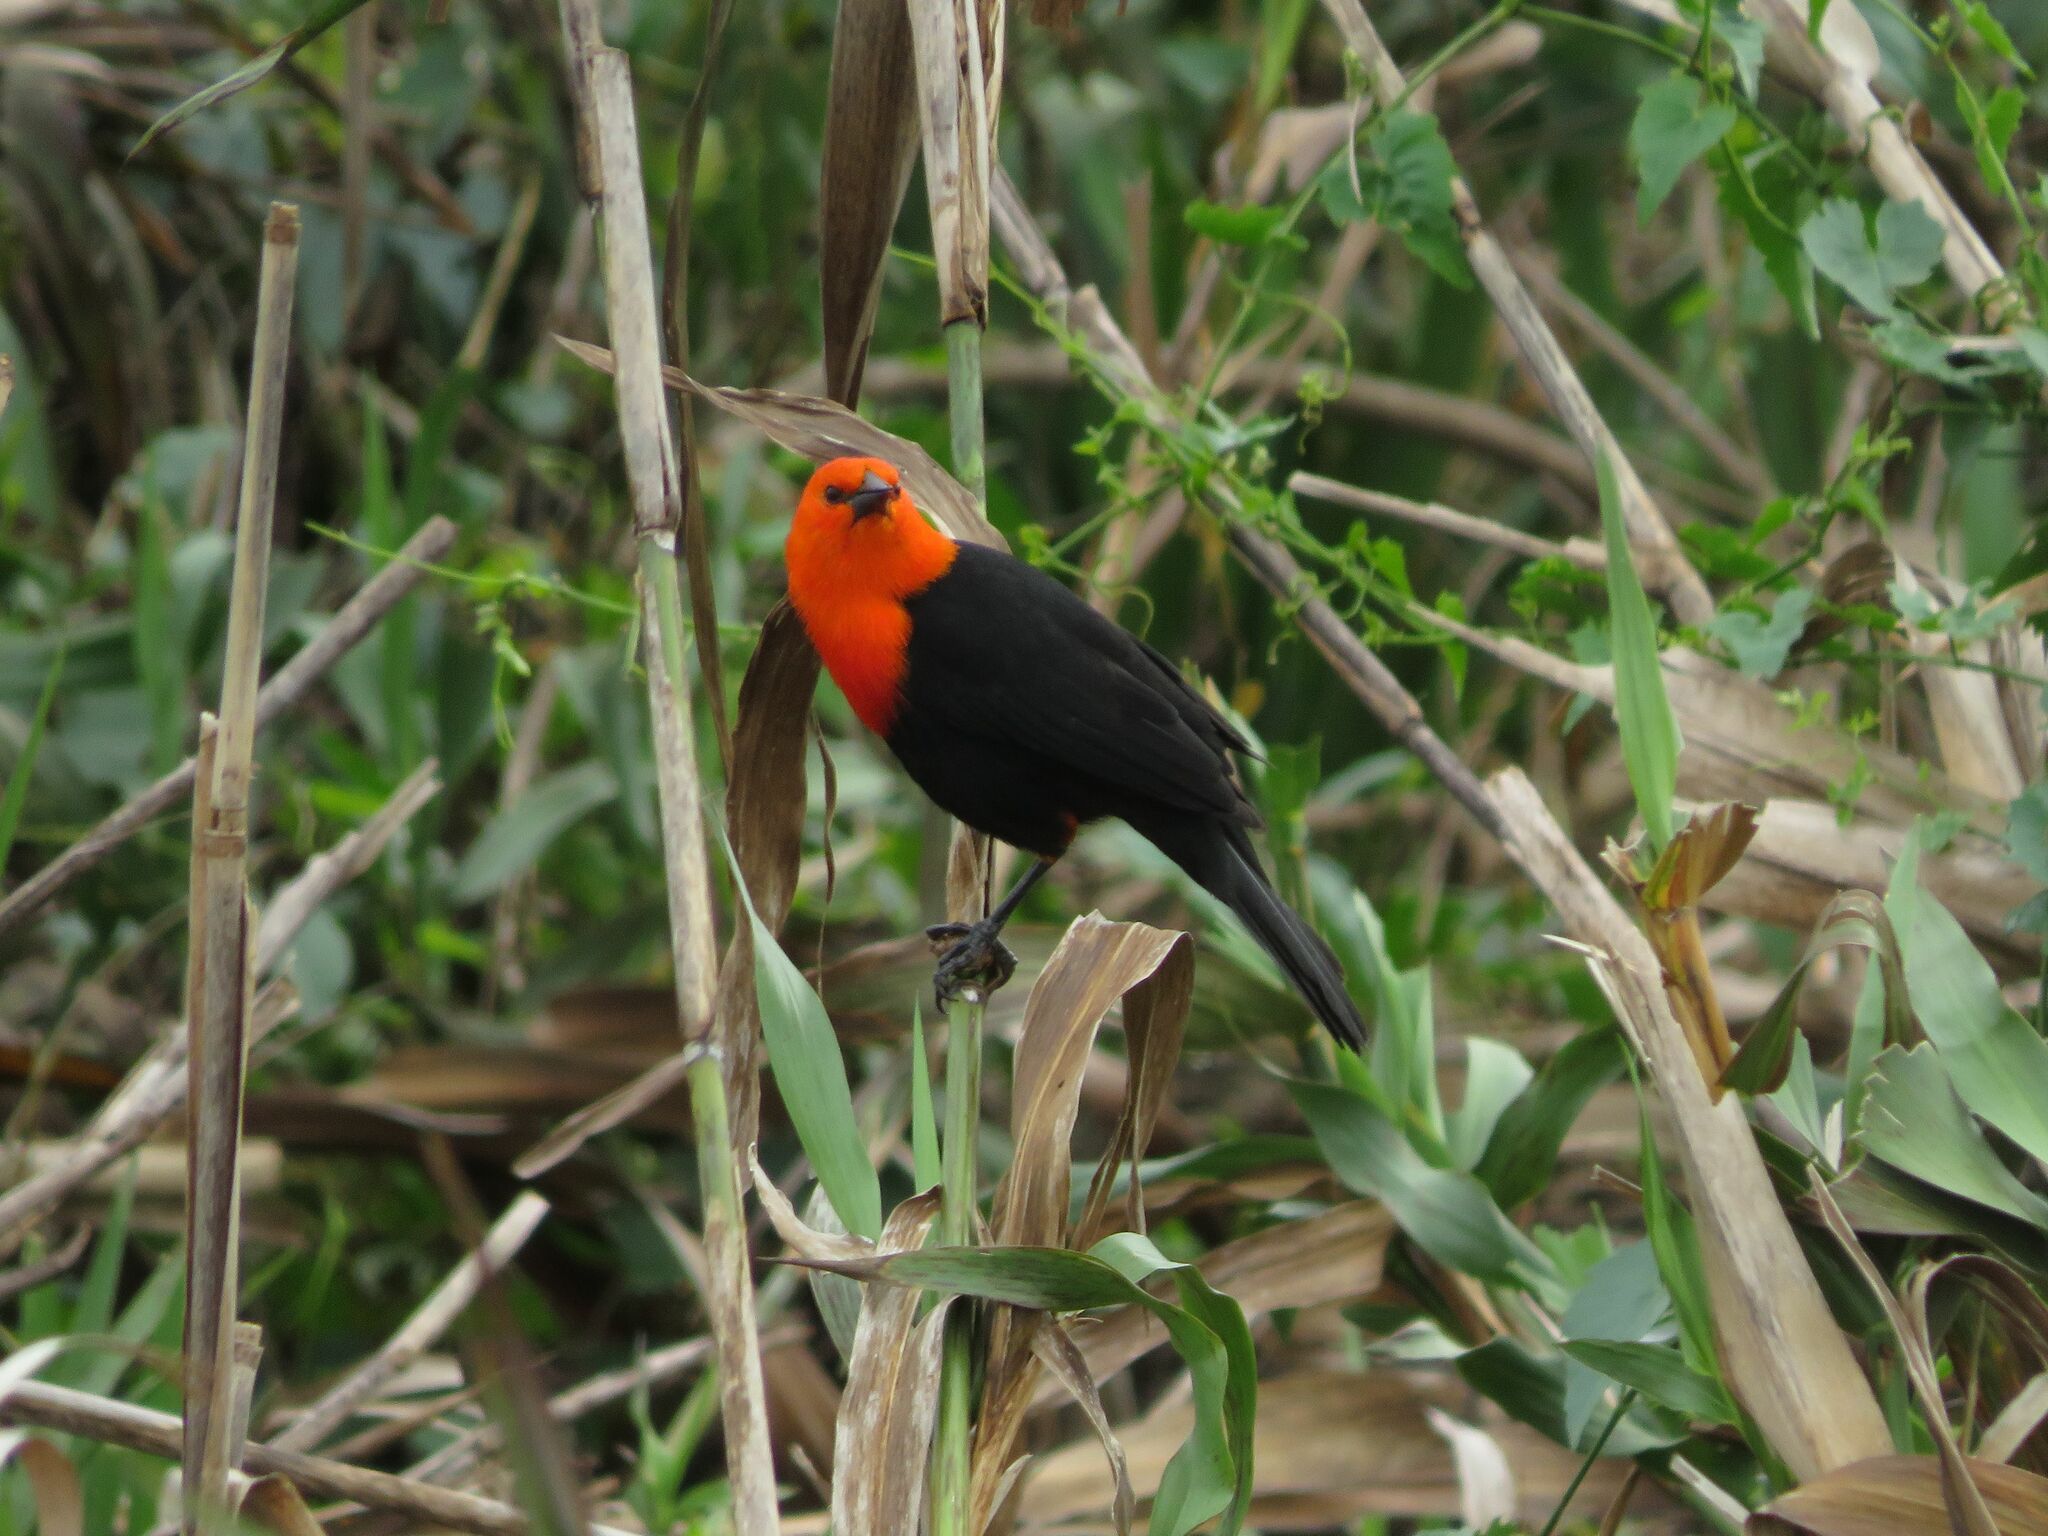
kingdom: Animalia
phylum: Chordata
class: Aves
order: Passeriformes
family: Icteridae
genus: Amblyramphus
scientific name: Amblyramphus holosericeus
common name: Scarlet-headed blackbird
